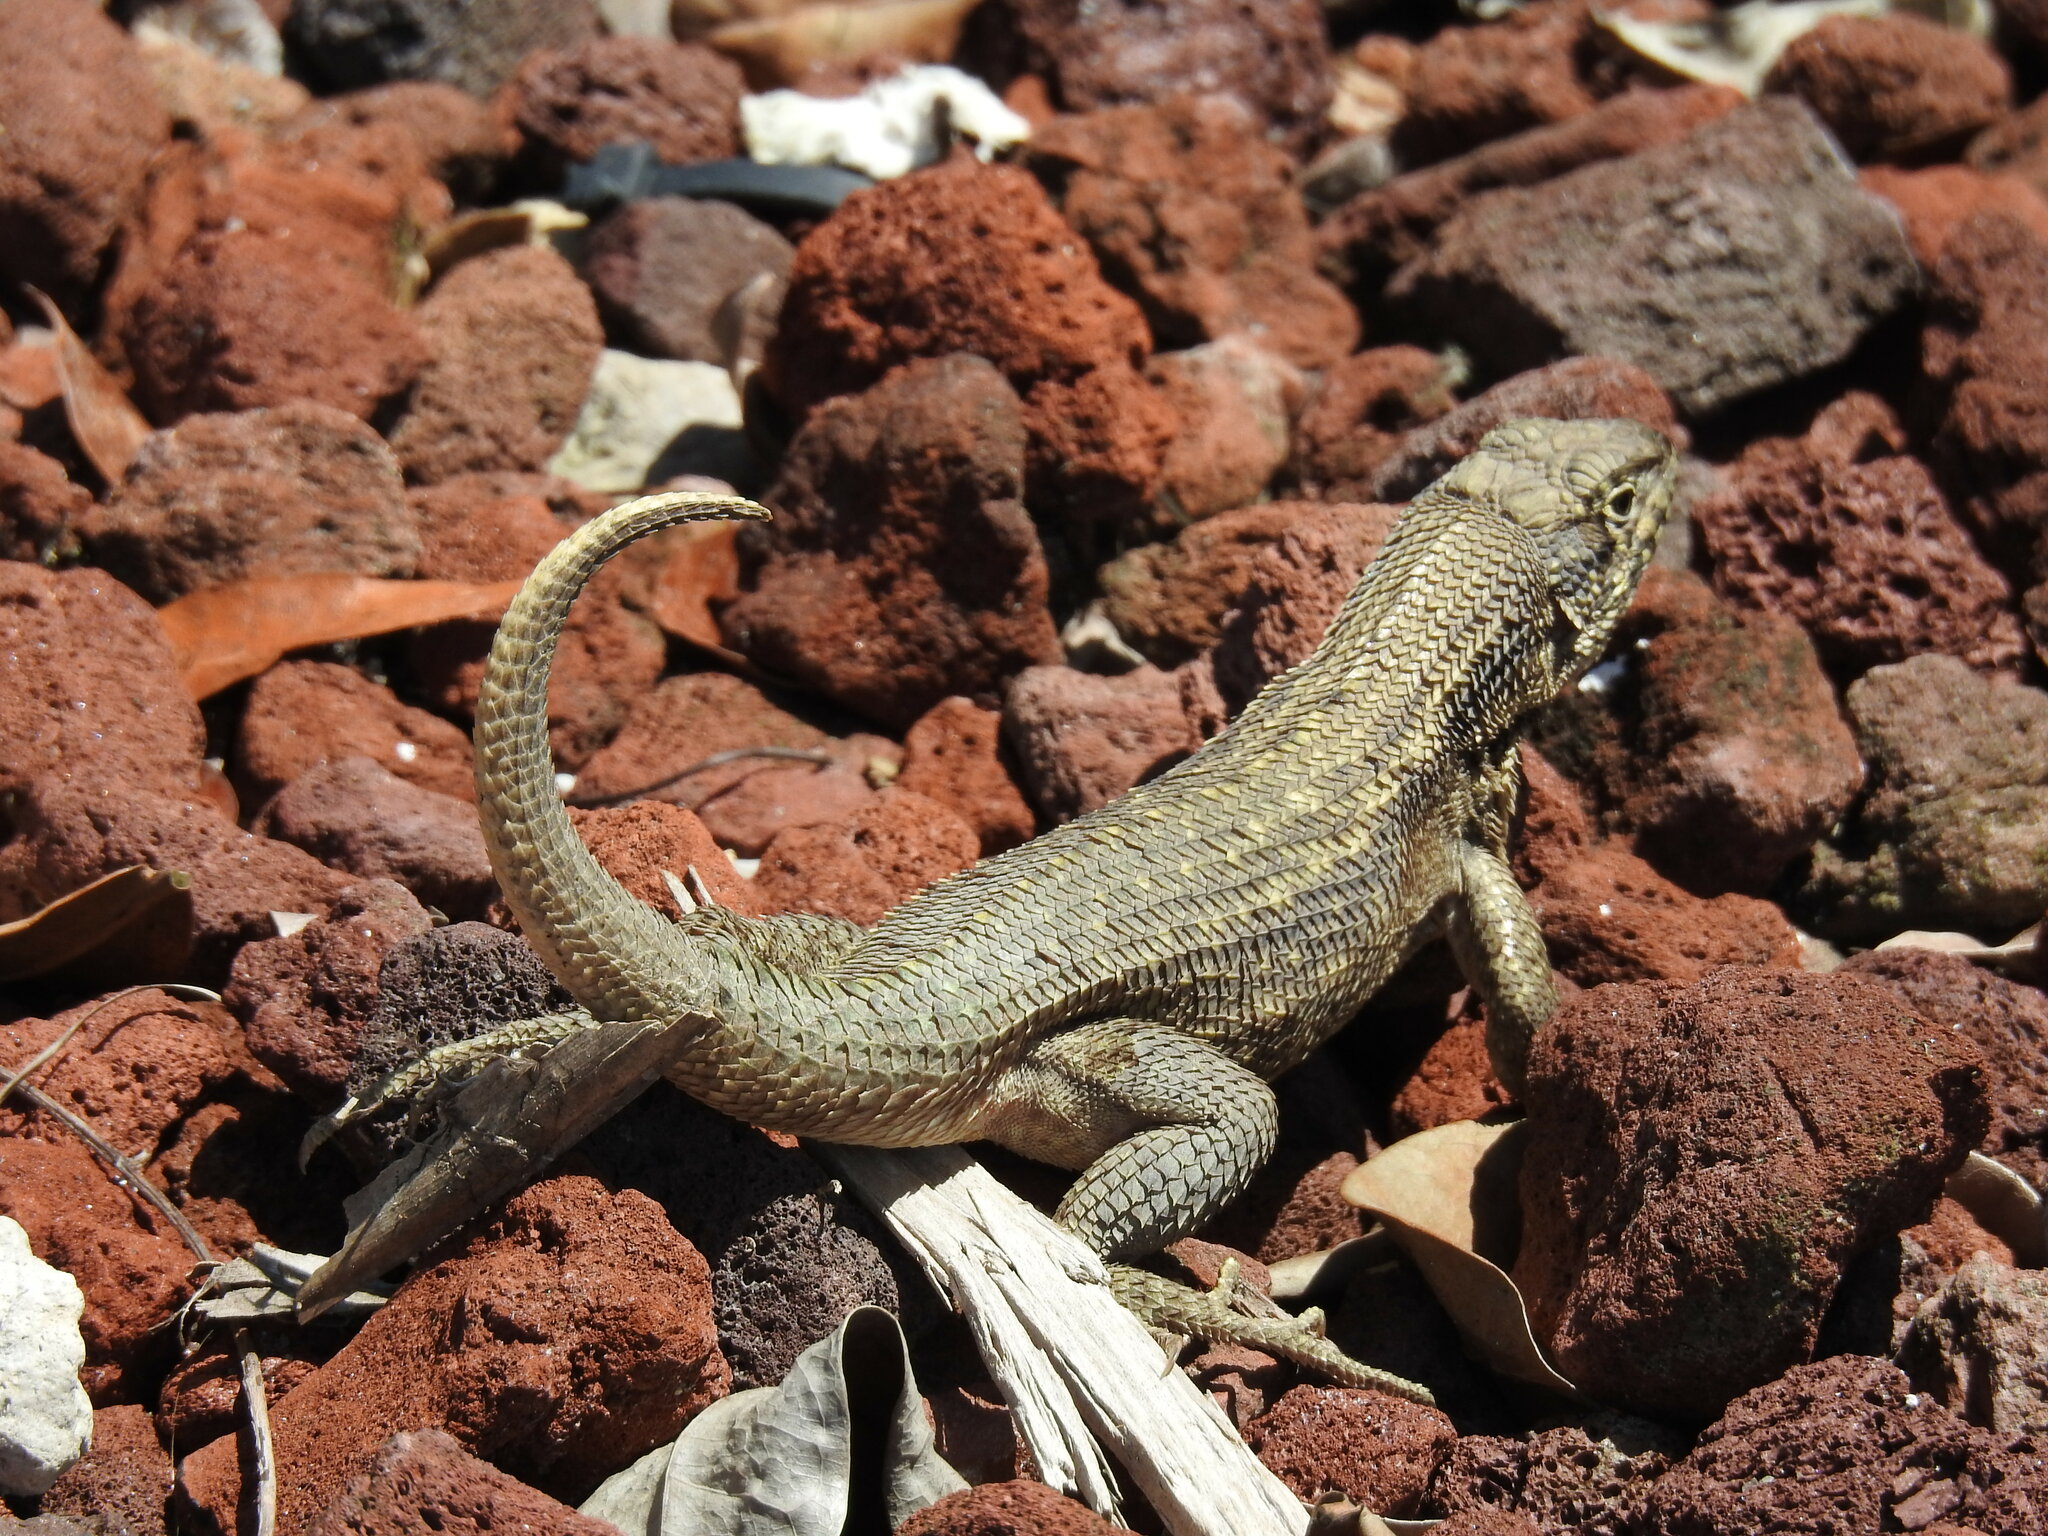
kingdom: Animalia
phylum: Chordata
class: Squamata
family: Leiocephalidae
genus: Leiocephalus
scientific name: Leiocephalus carinatus
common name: Northern curly-tailed lizard
